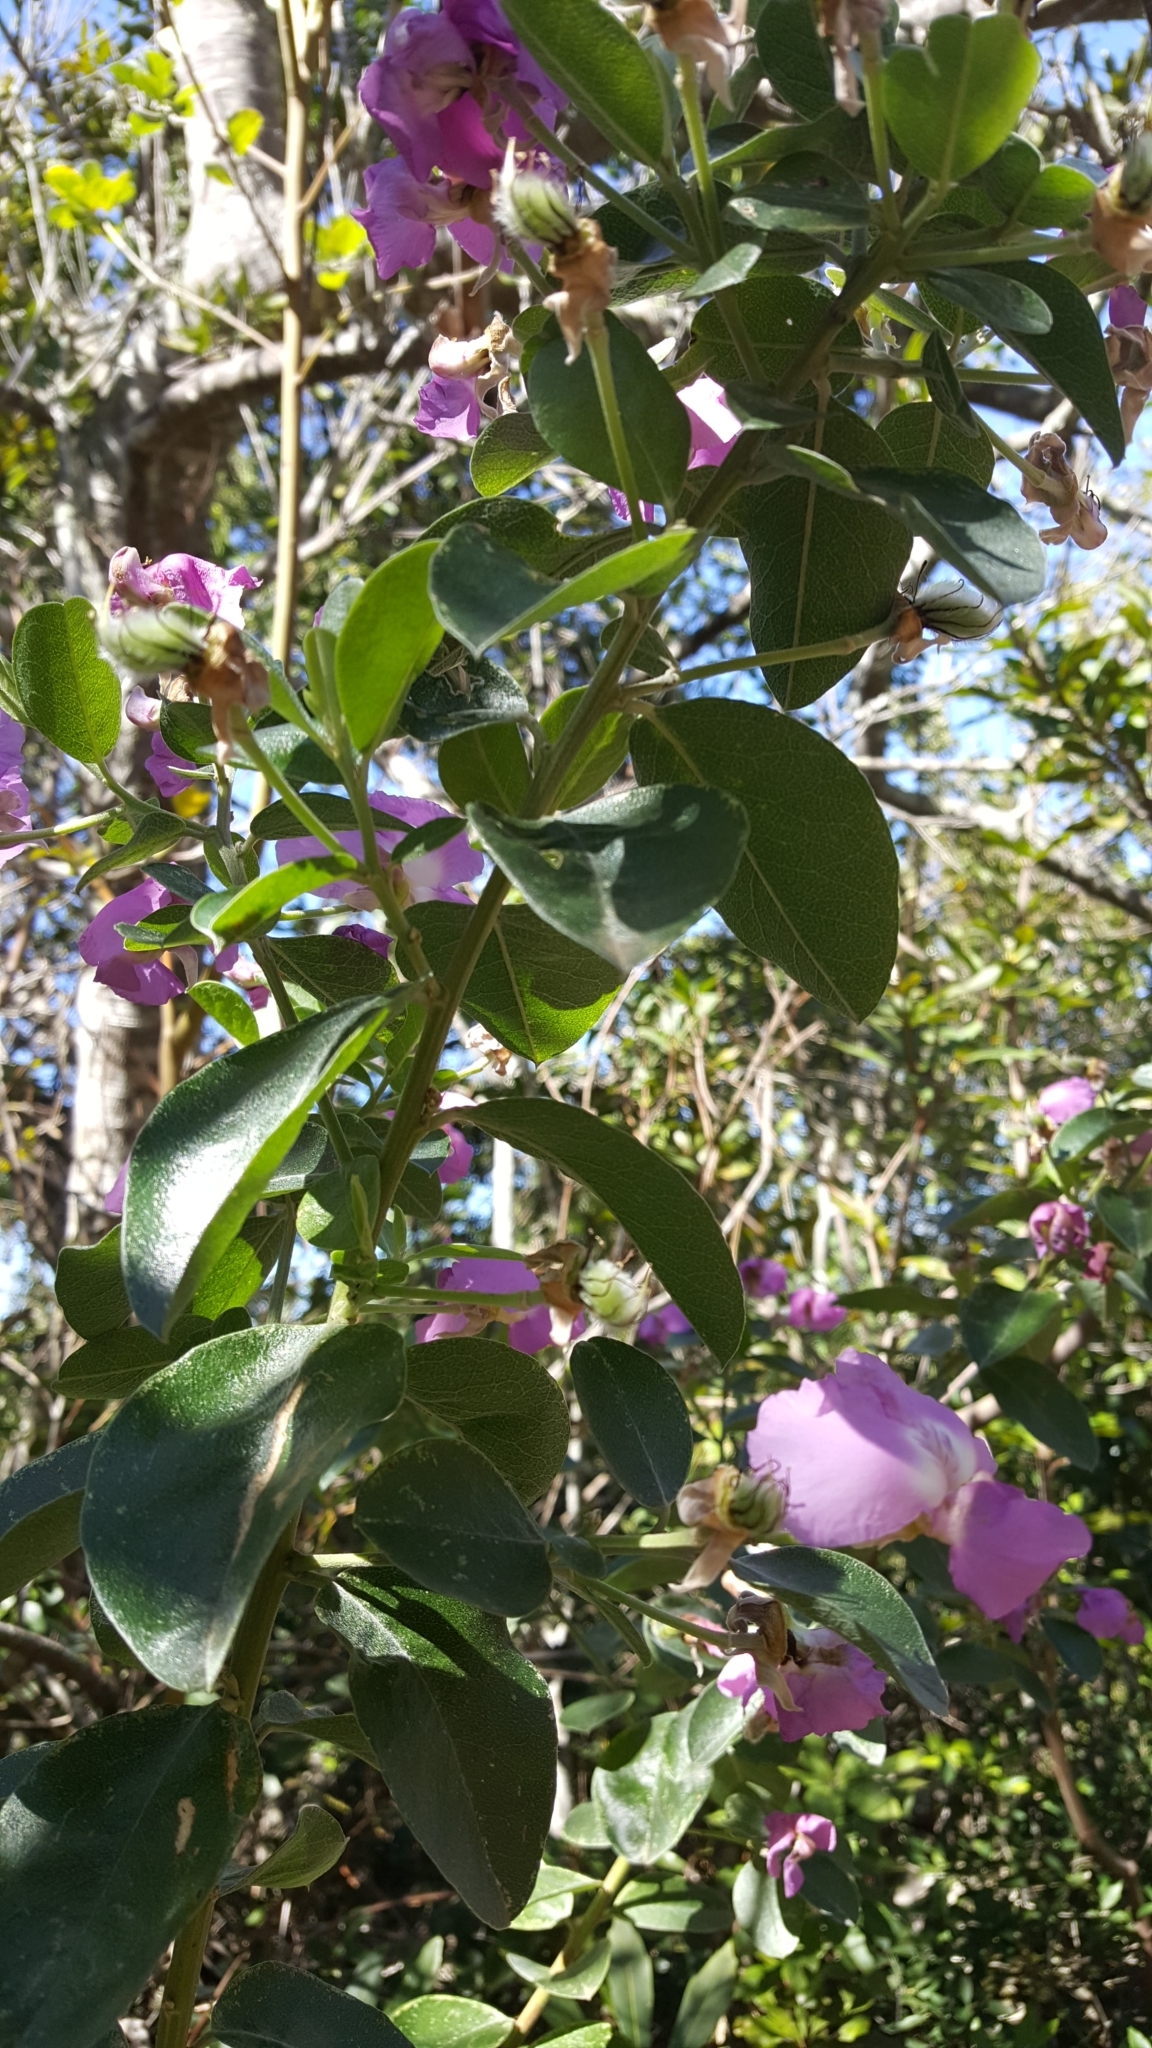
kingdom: Plantae
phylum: Tracheophyta
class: Magnoliopsida
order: Fabales
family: Fabaceae
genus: Podalyria
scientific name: Podalyria calyptrata
